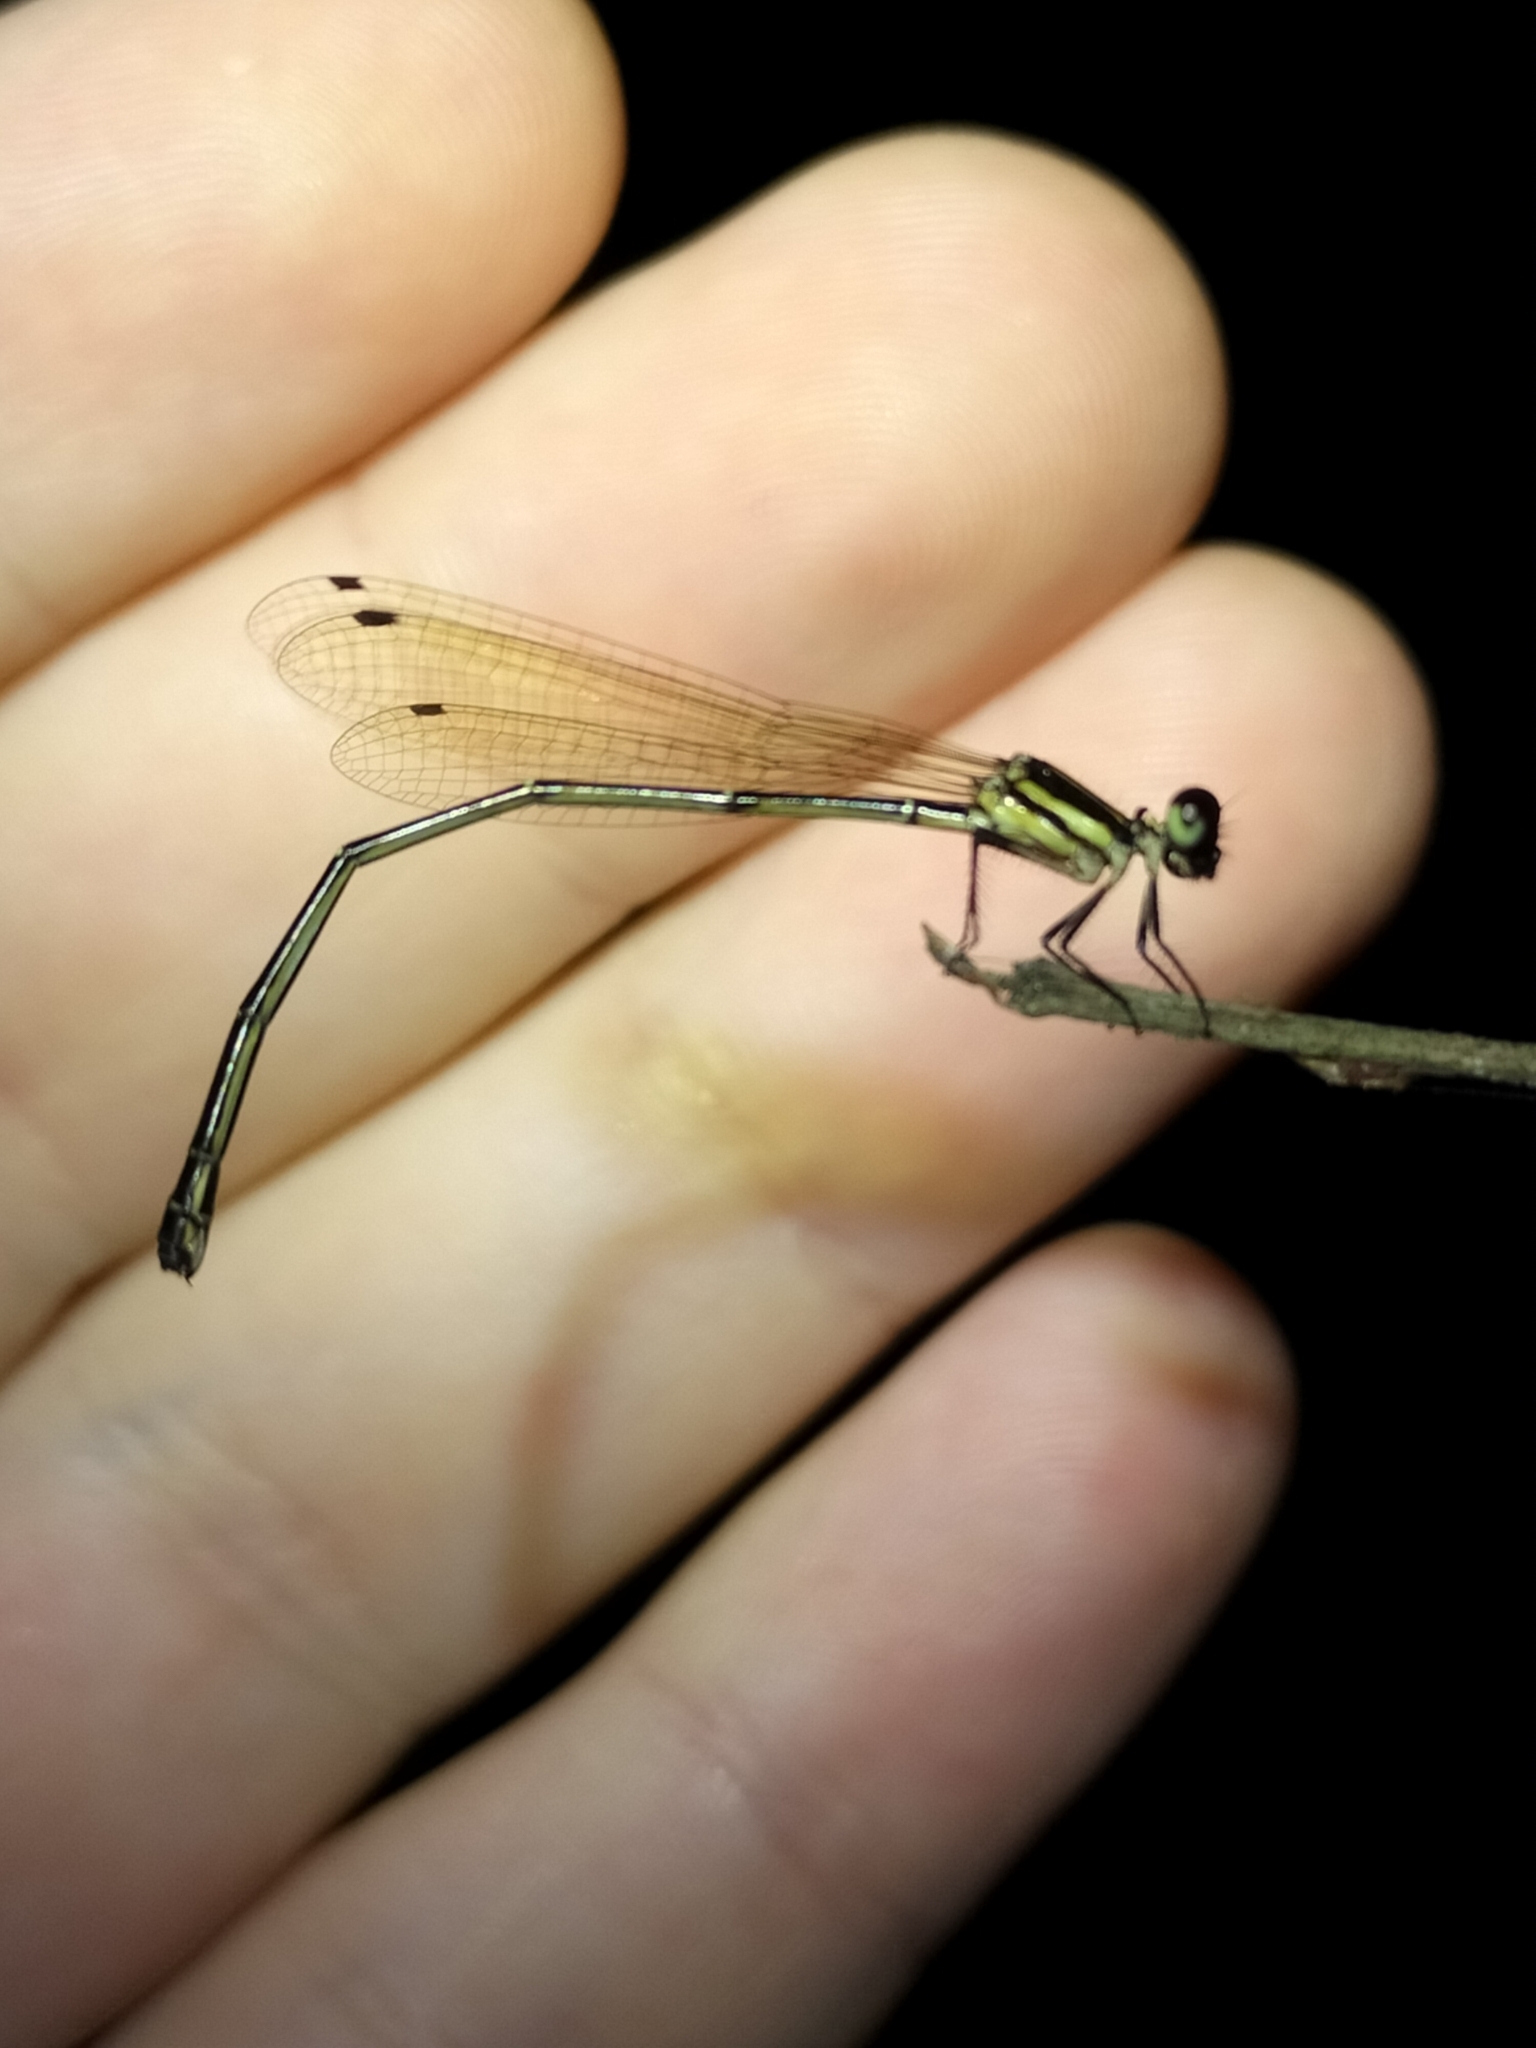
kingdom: Animalia
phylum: Arthropoda
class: Insecta
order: Odonata
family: Platycnemididae
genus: Nososticta
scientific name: Nososticta solitaria
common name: Fivespot threadtail
